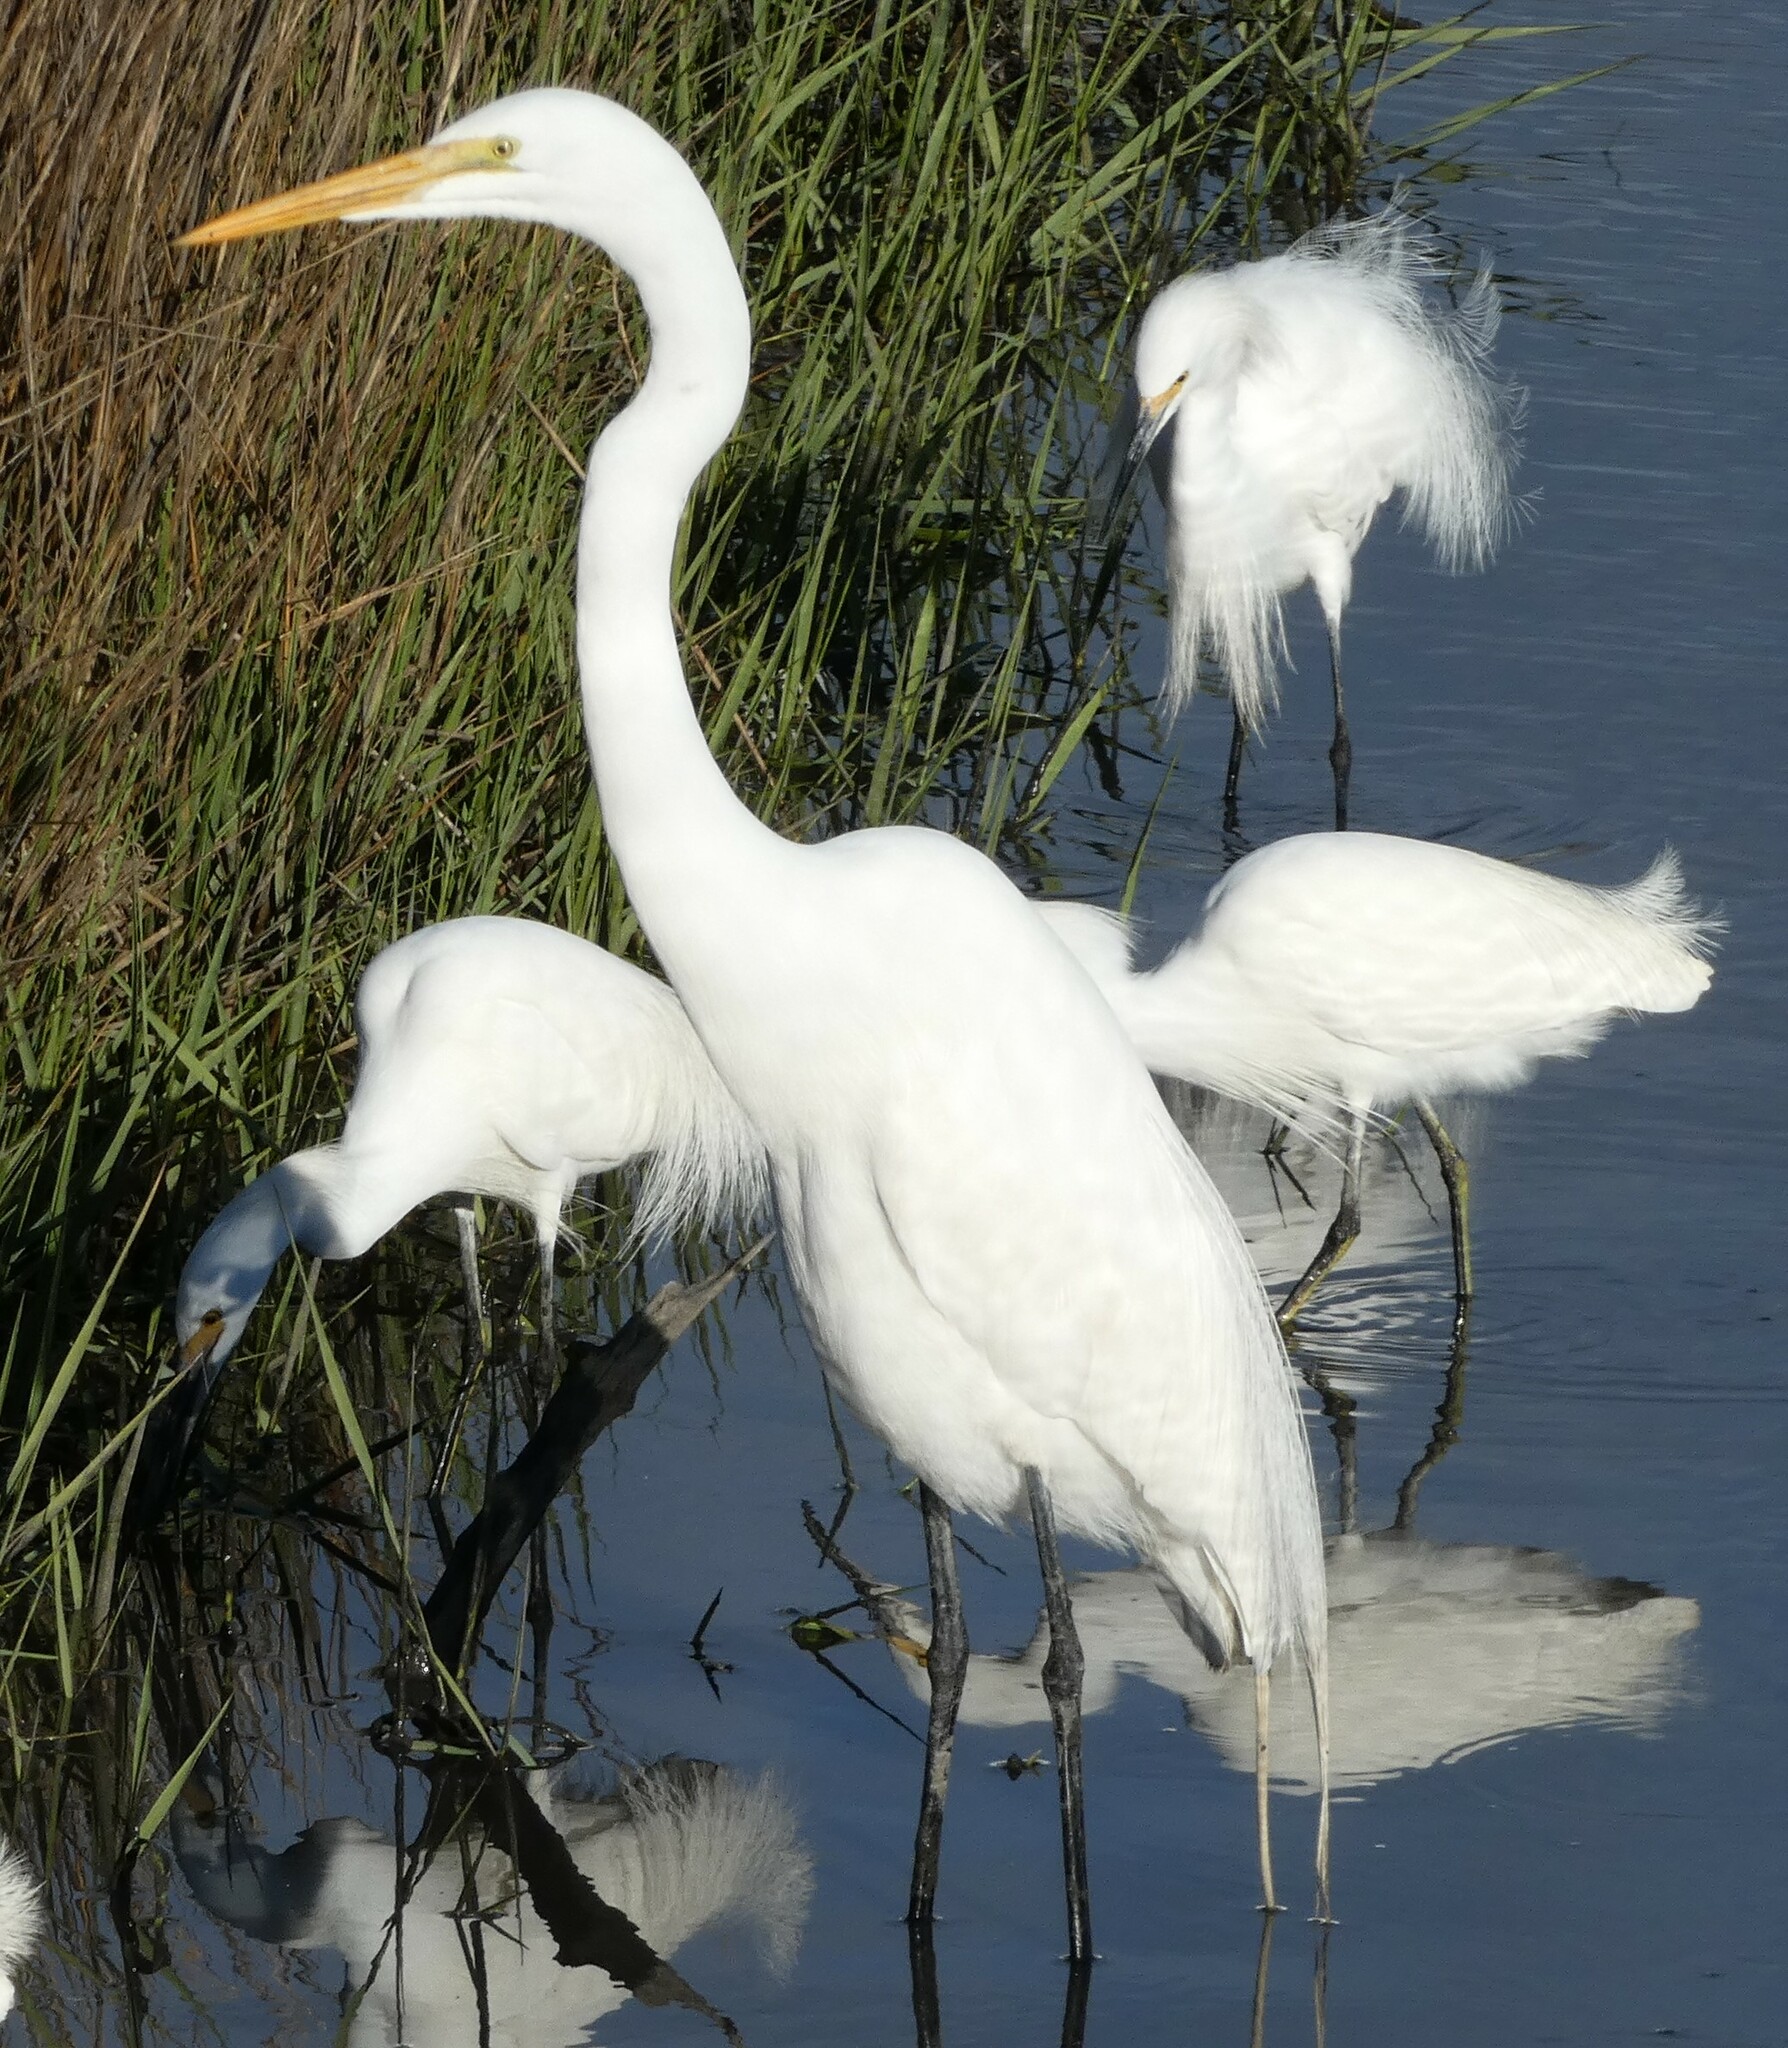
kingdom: Animalia
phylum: Chordata
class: Aves
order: Pelecaniformes
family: Ardeidae
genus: Ardea
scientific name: Ardea alba
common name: Great egret
